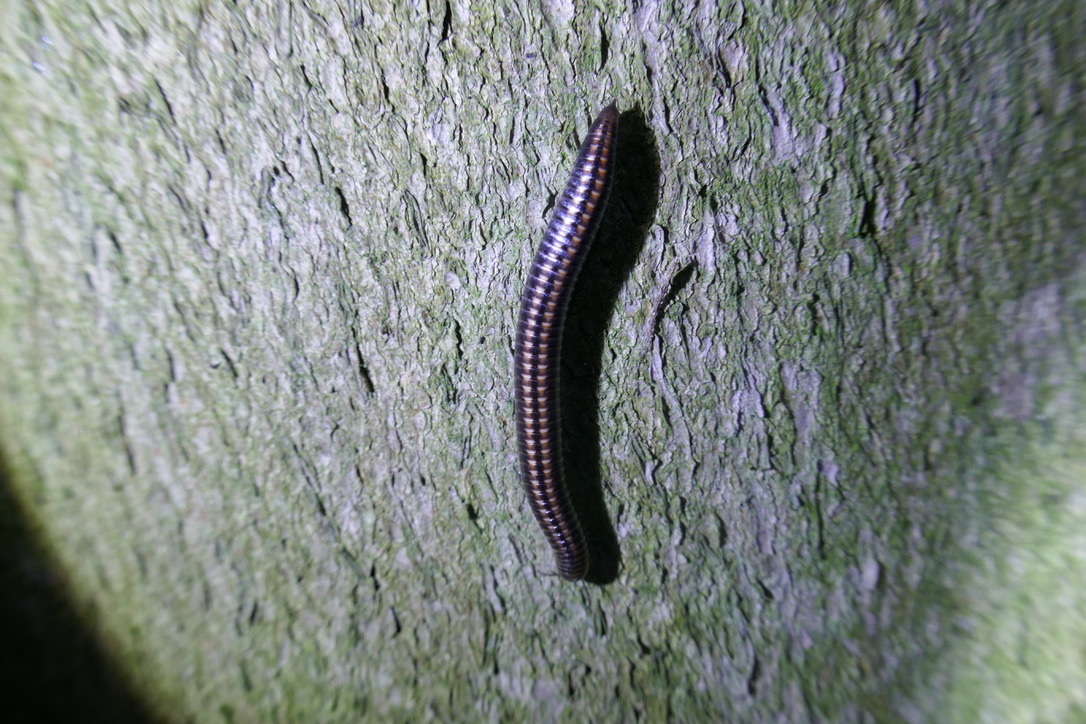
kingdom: Animalia
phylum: Arthropoda
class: Diplopoda
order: Julida
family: Julidae
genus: Ommatoiulus
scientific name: Ommatoiulus sabulosus
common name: Striped millipede
